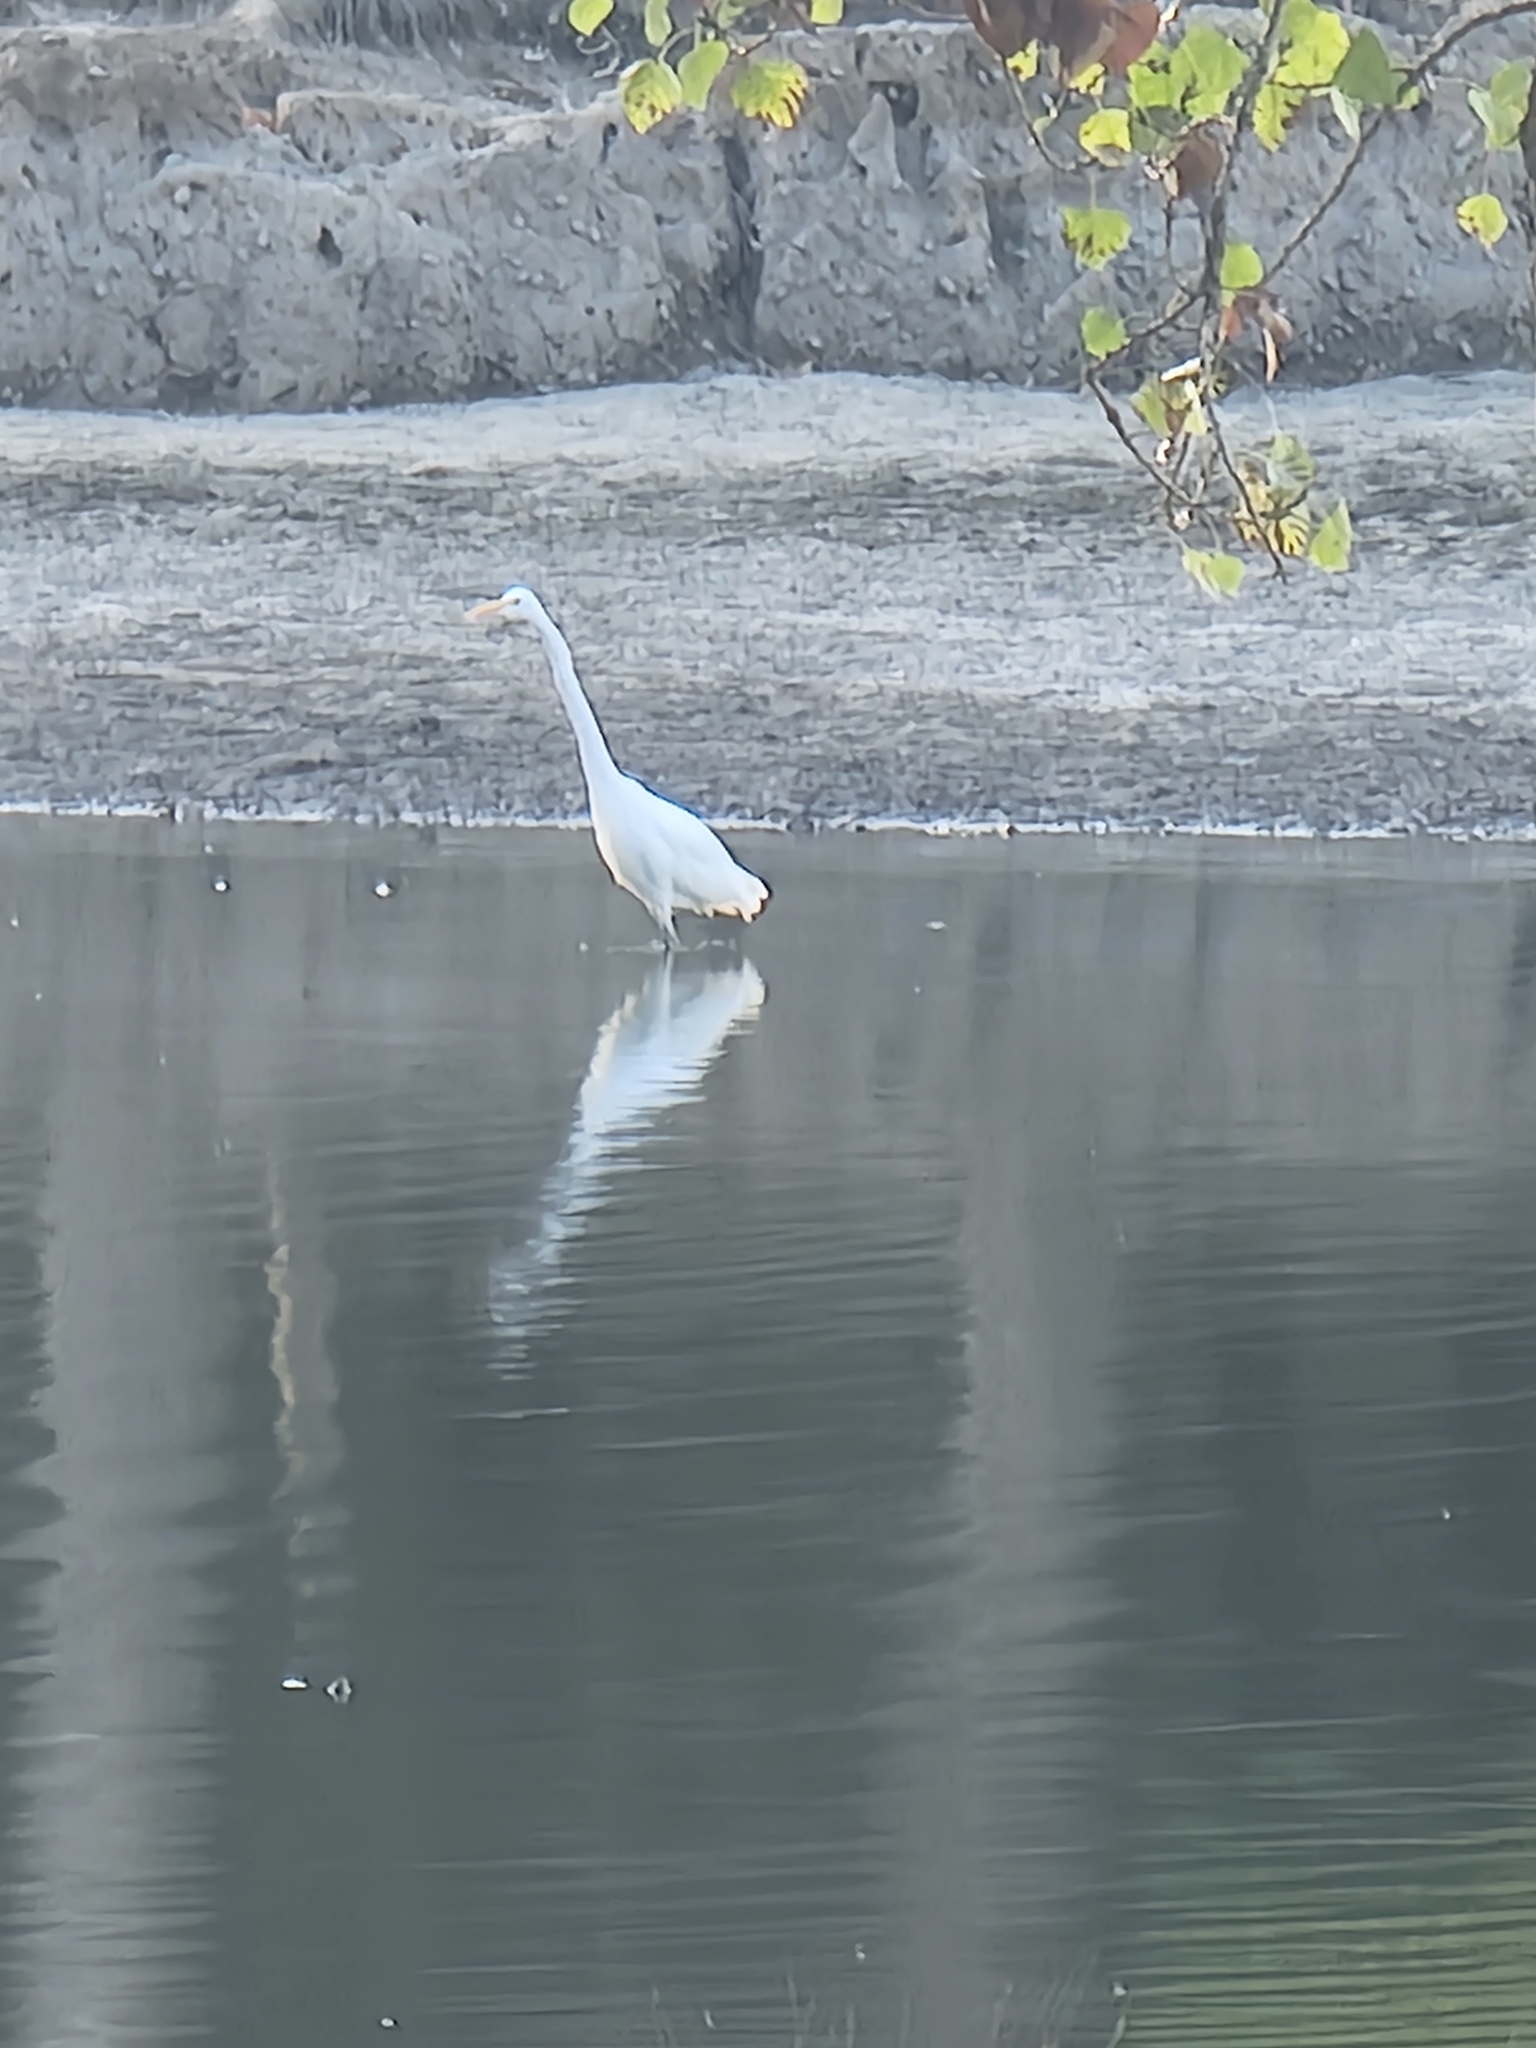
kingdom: Animalia
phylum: Chordata
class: Aves
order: Pelecaniformes
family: Ardeidae
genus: Ardea
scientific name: Ardea alba
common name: Great egret
